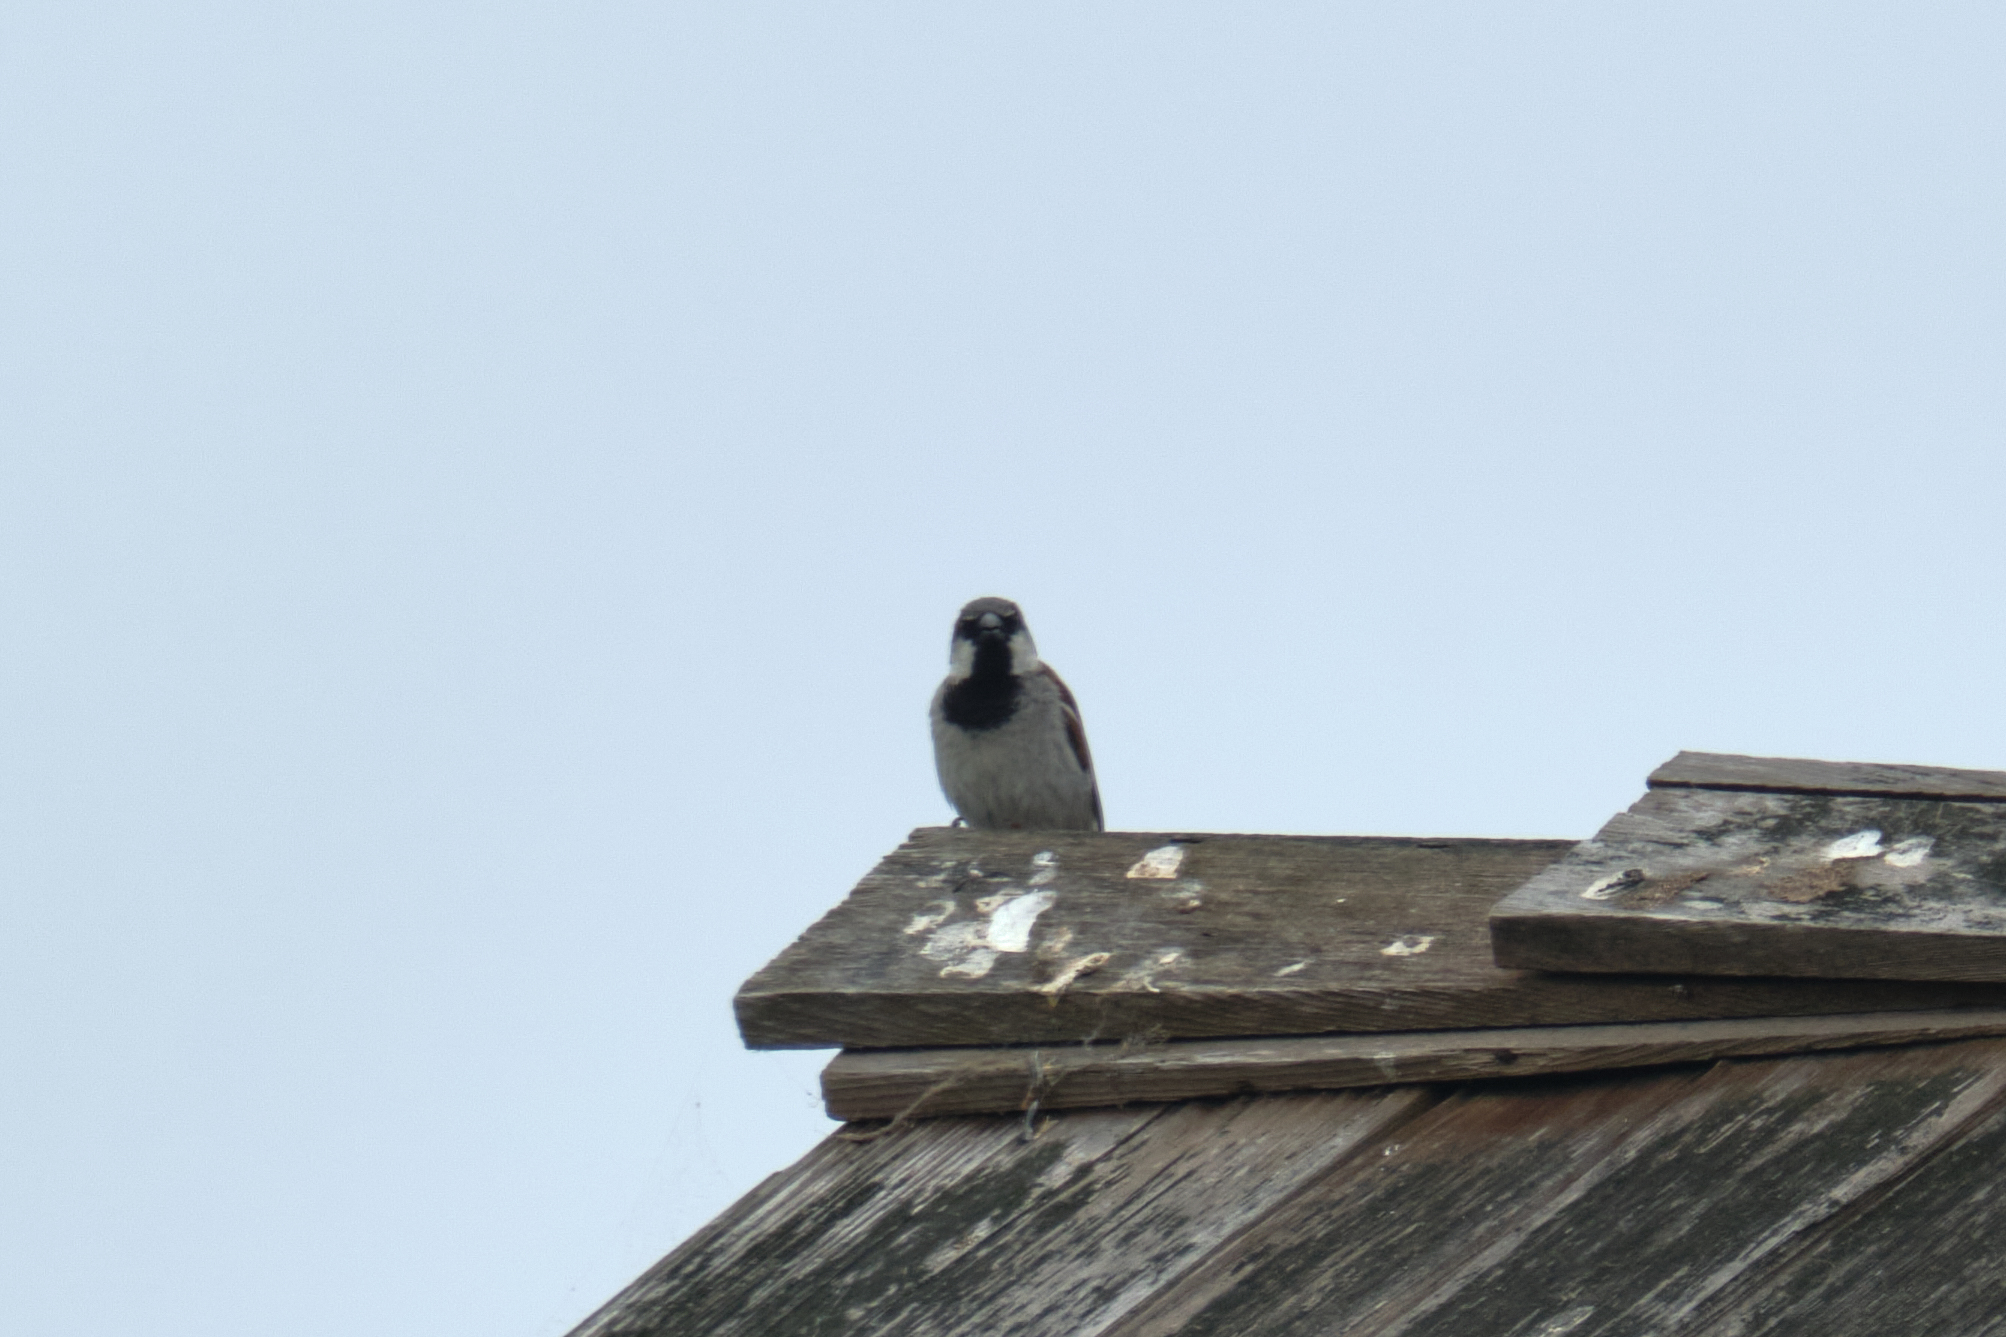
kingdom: Animalia
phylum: Chordata
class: Aves
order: Passeriformes
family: Passeridae
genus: Passer
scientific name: Passer domesticus
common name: House sparrow
